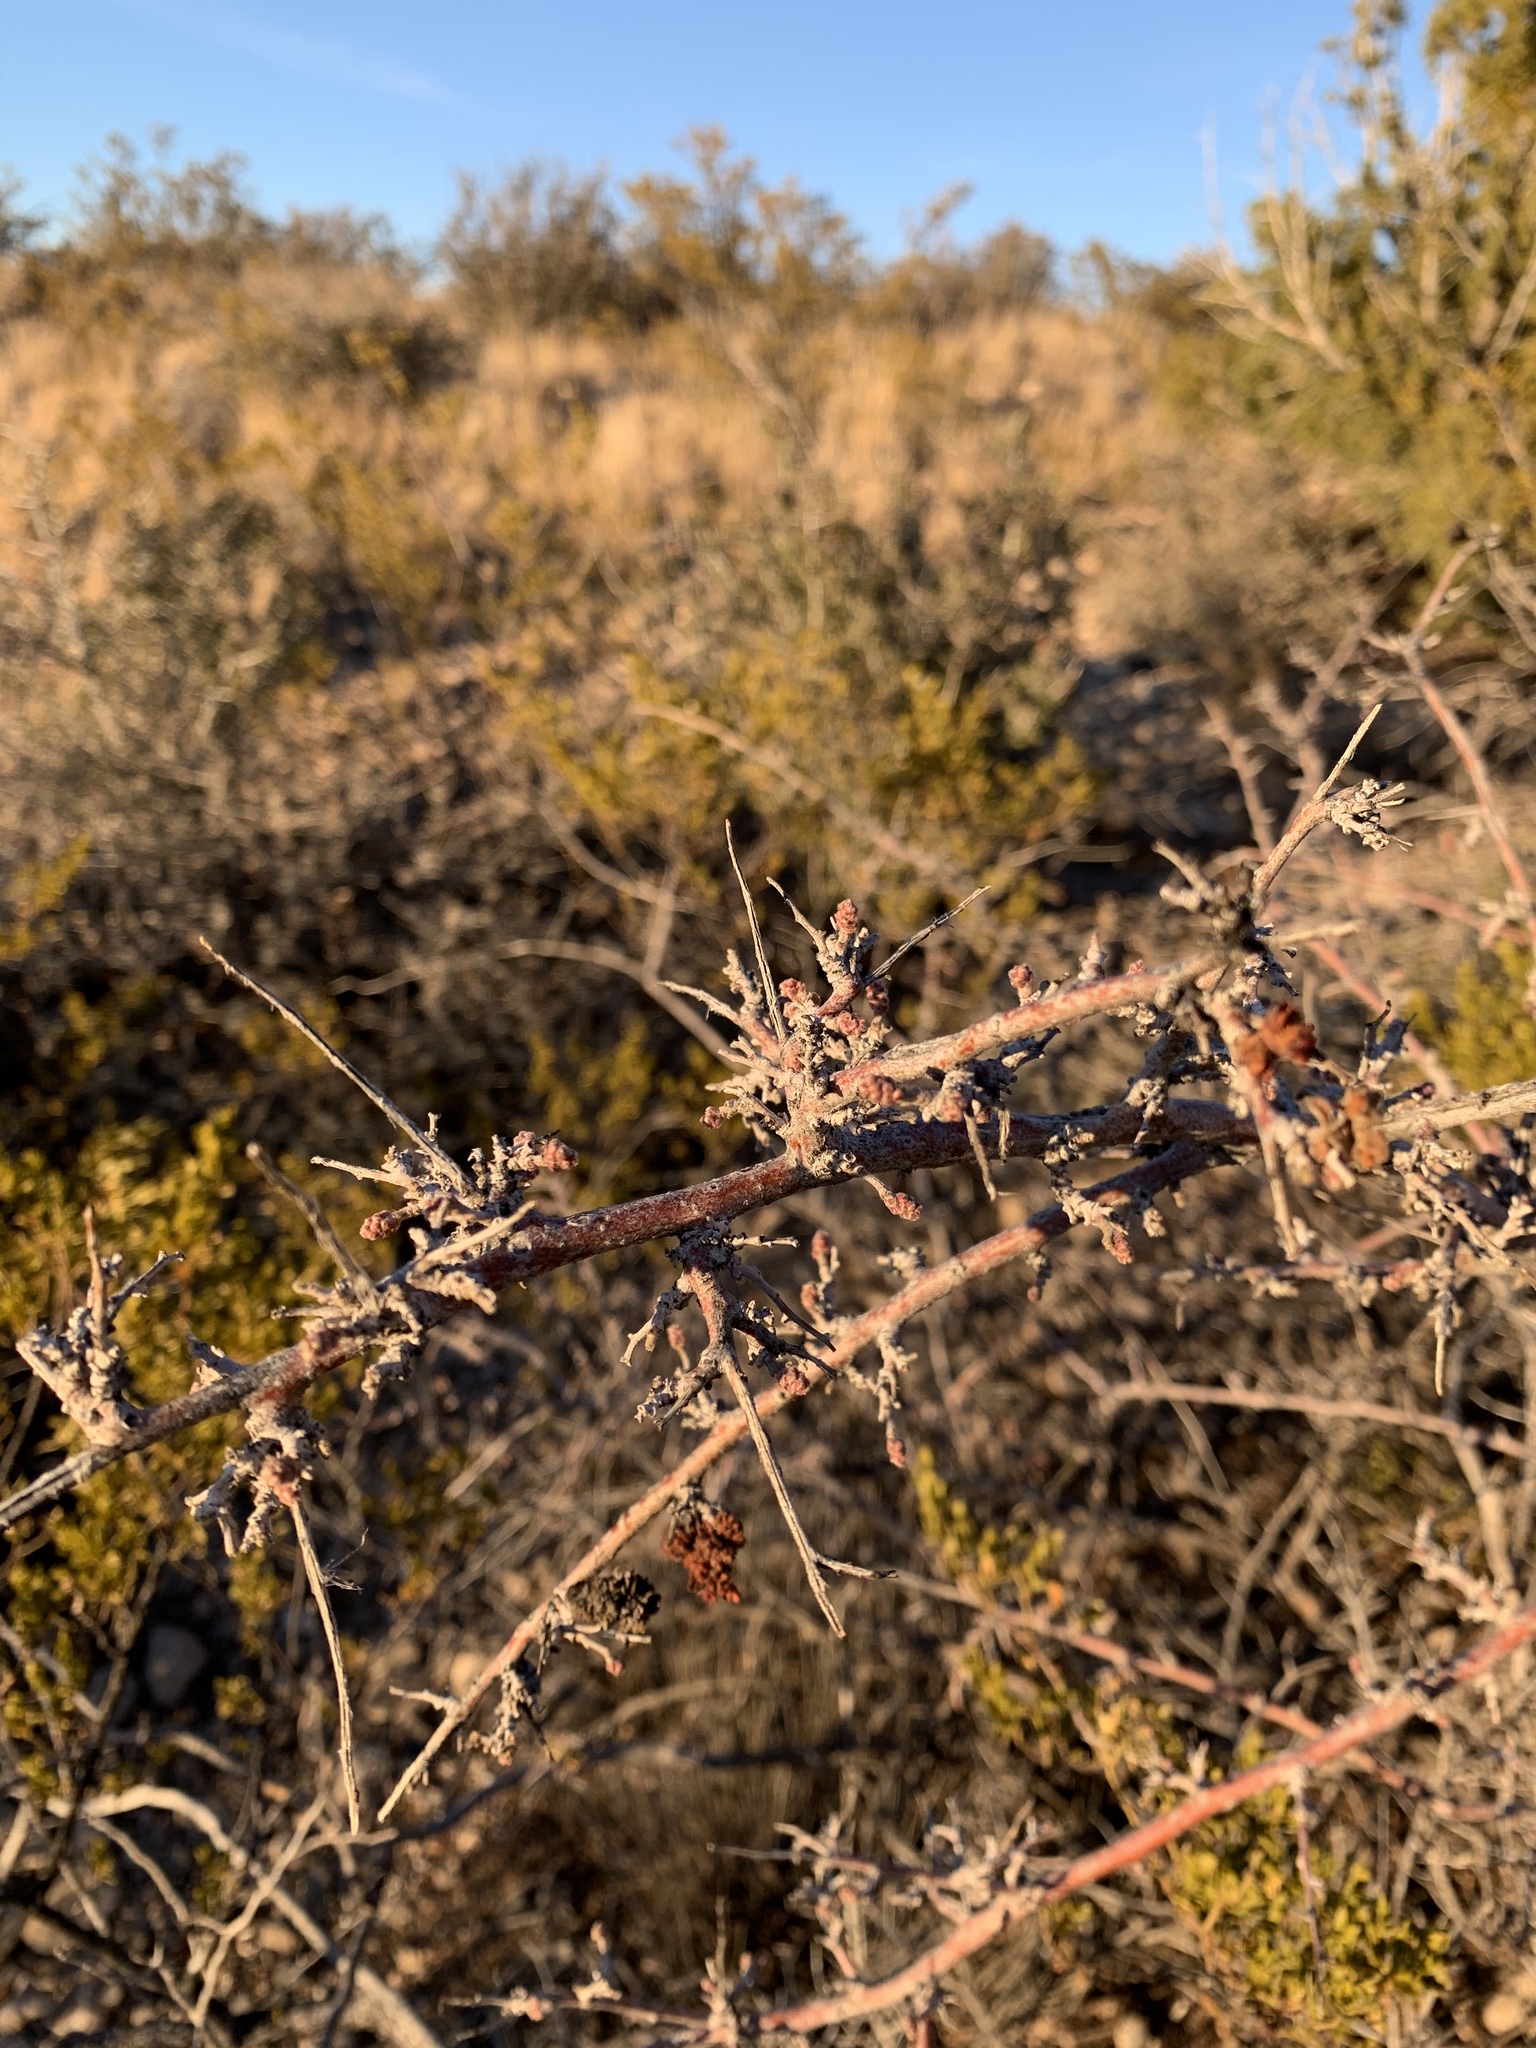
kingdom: Plantae
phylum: Tracheophyta
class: Magnoliopsida
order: Sapindales
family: Anacardiaceae
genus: Rhus
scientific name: Rhus microphylla
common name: Desert sumac
